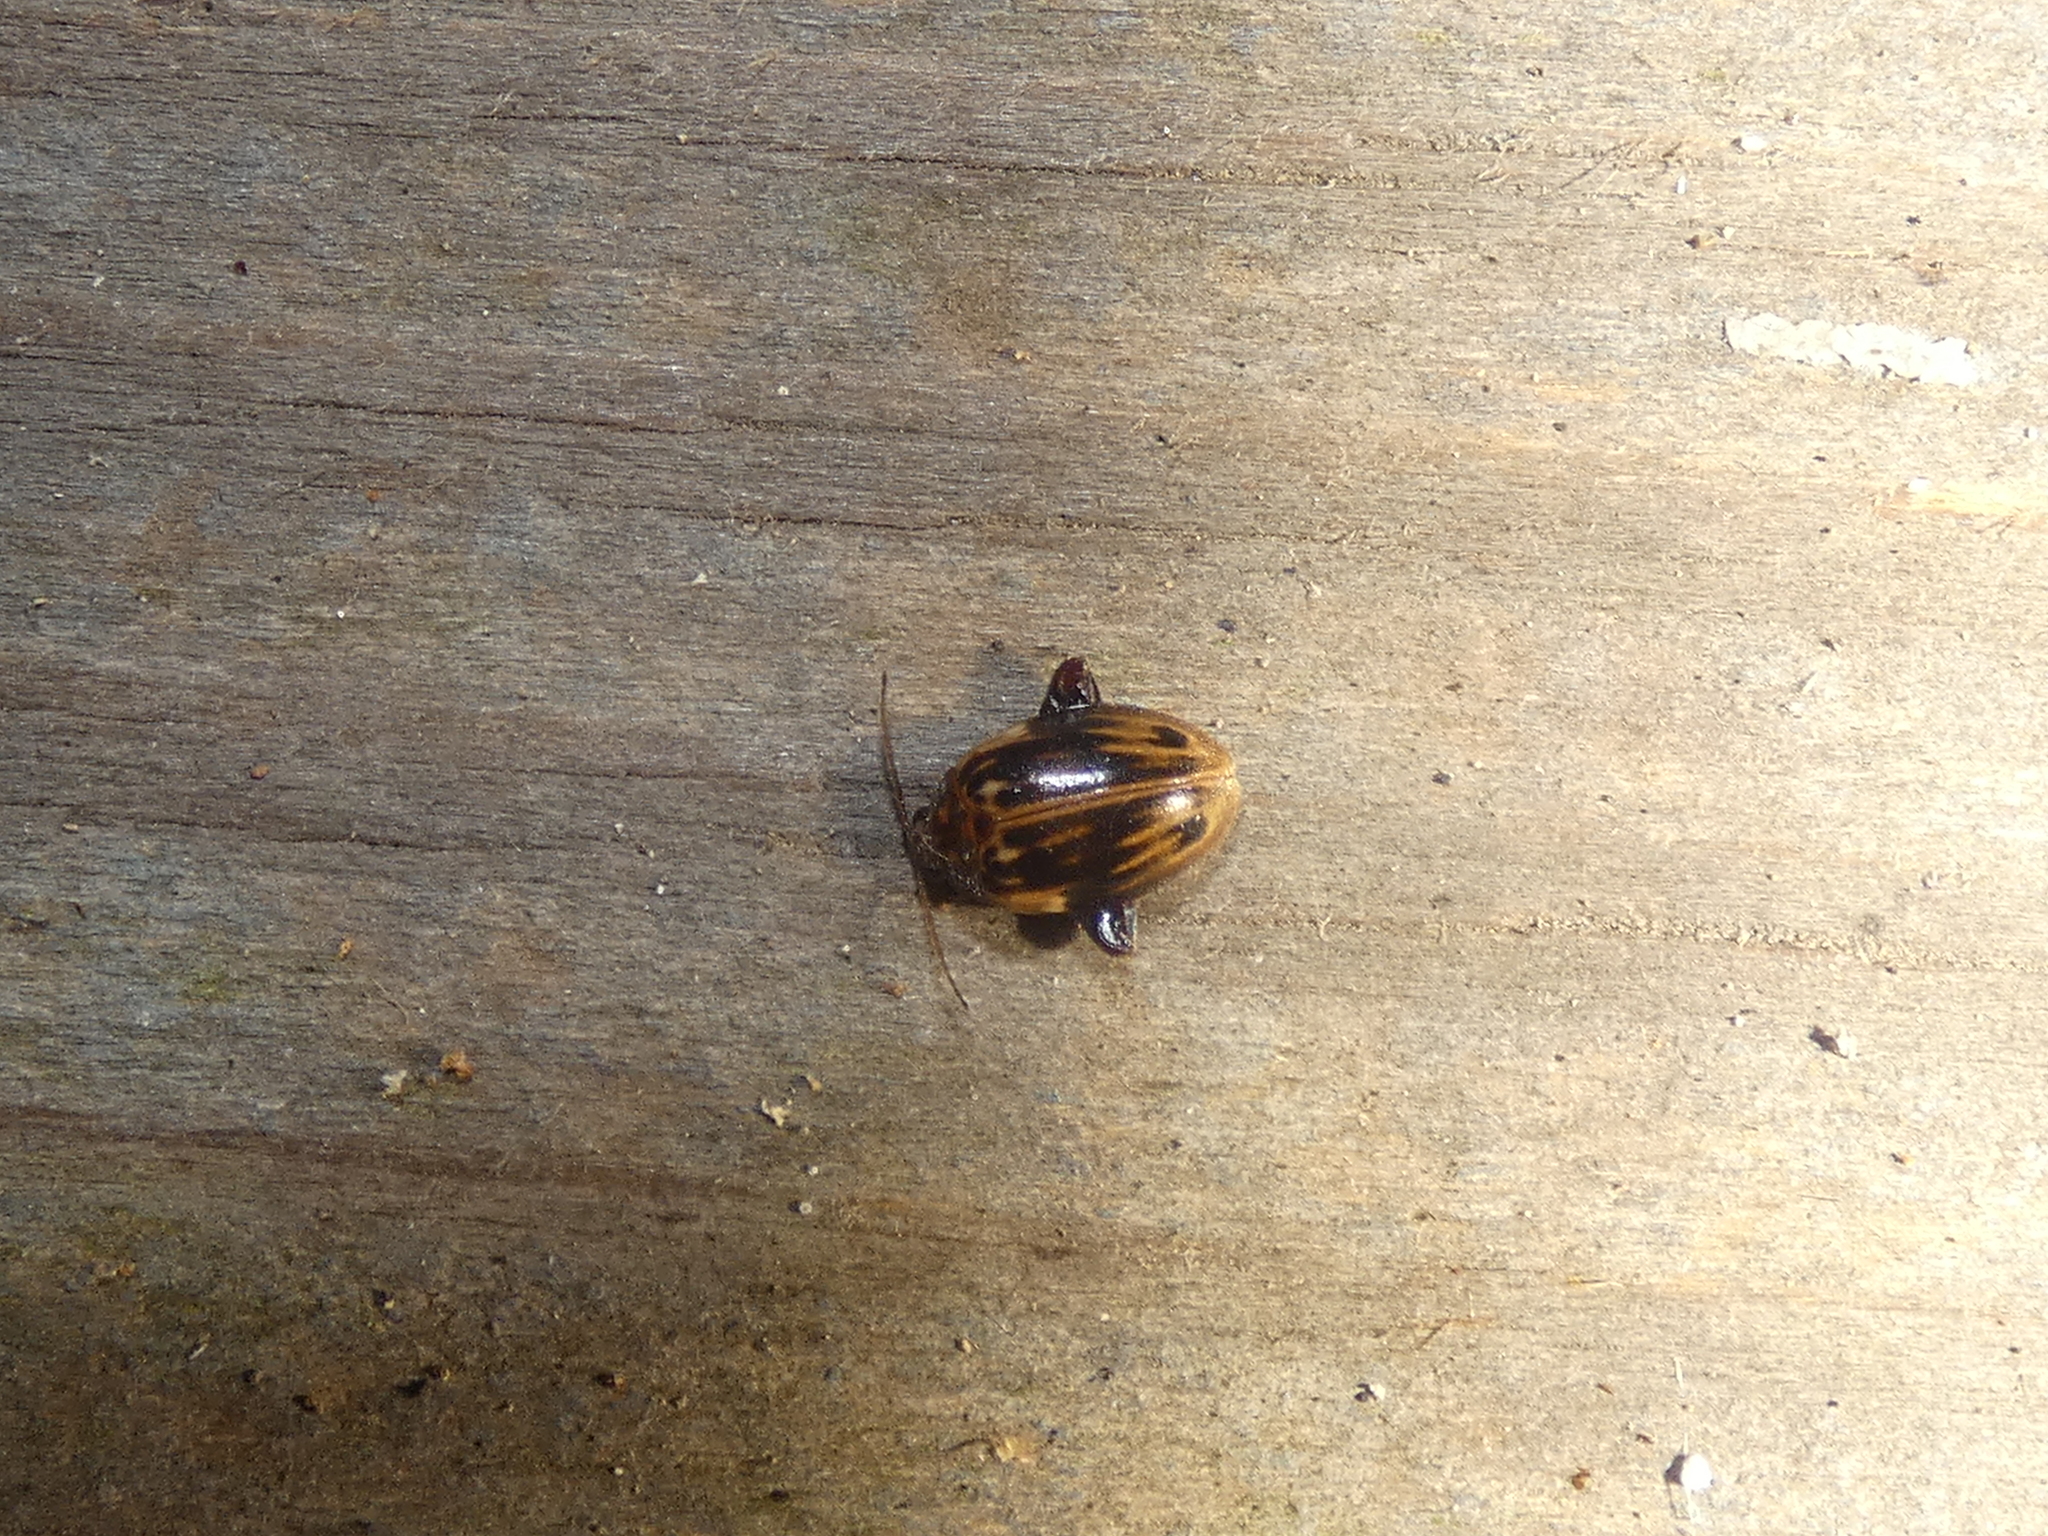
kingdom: Animalia
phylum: Arthropoda
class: Insecta
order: Coleoptera
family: Scirtidae
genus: Ora
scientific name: Ora texana
